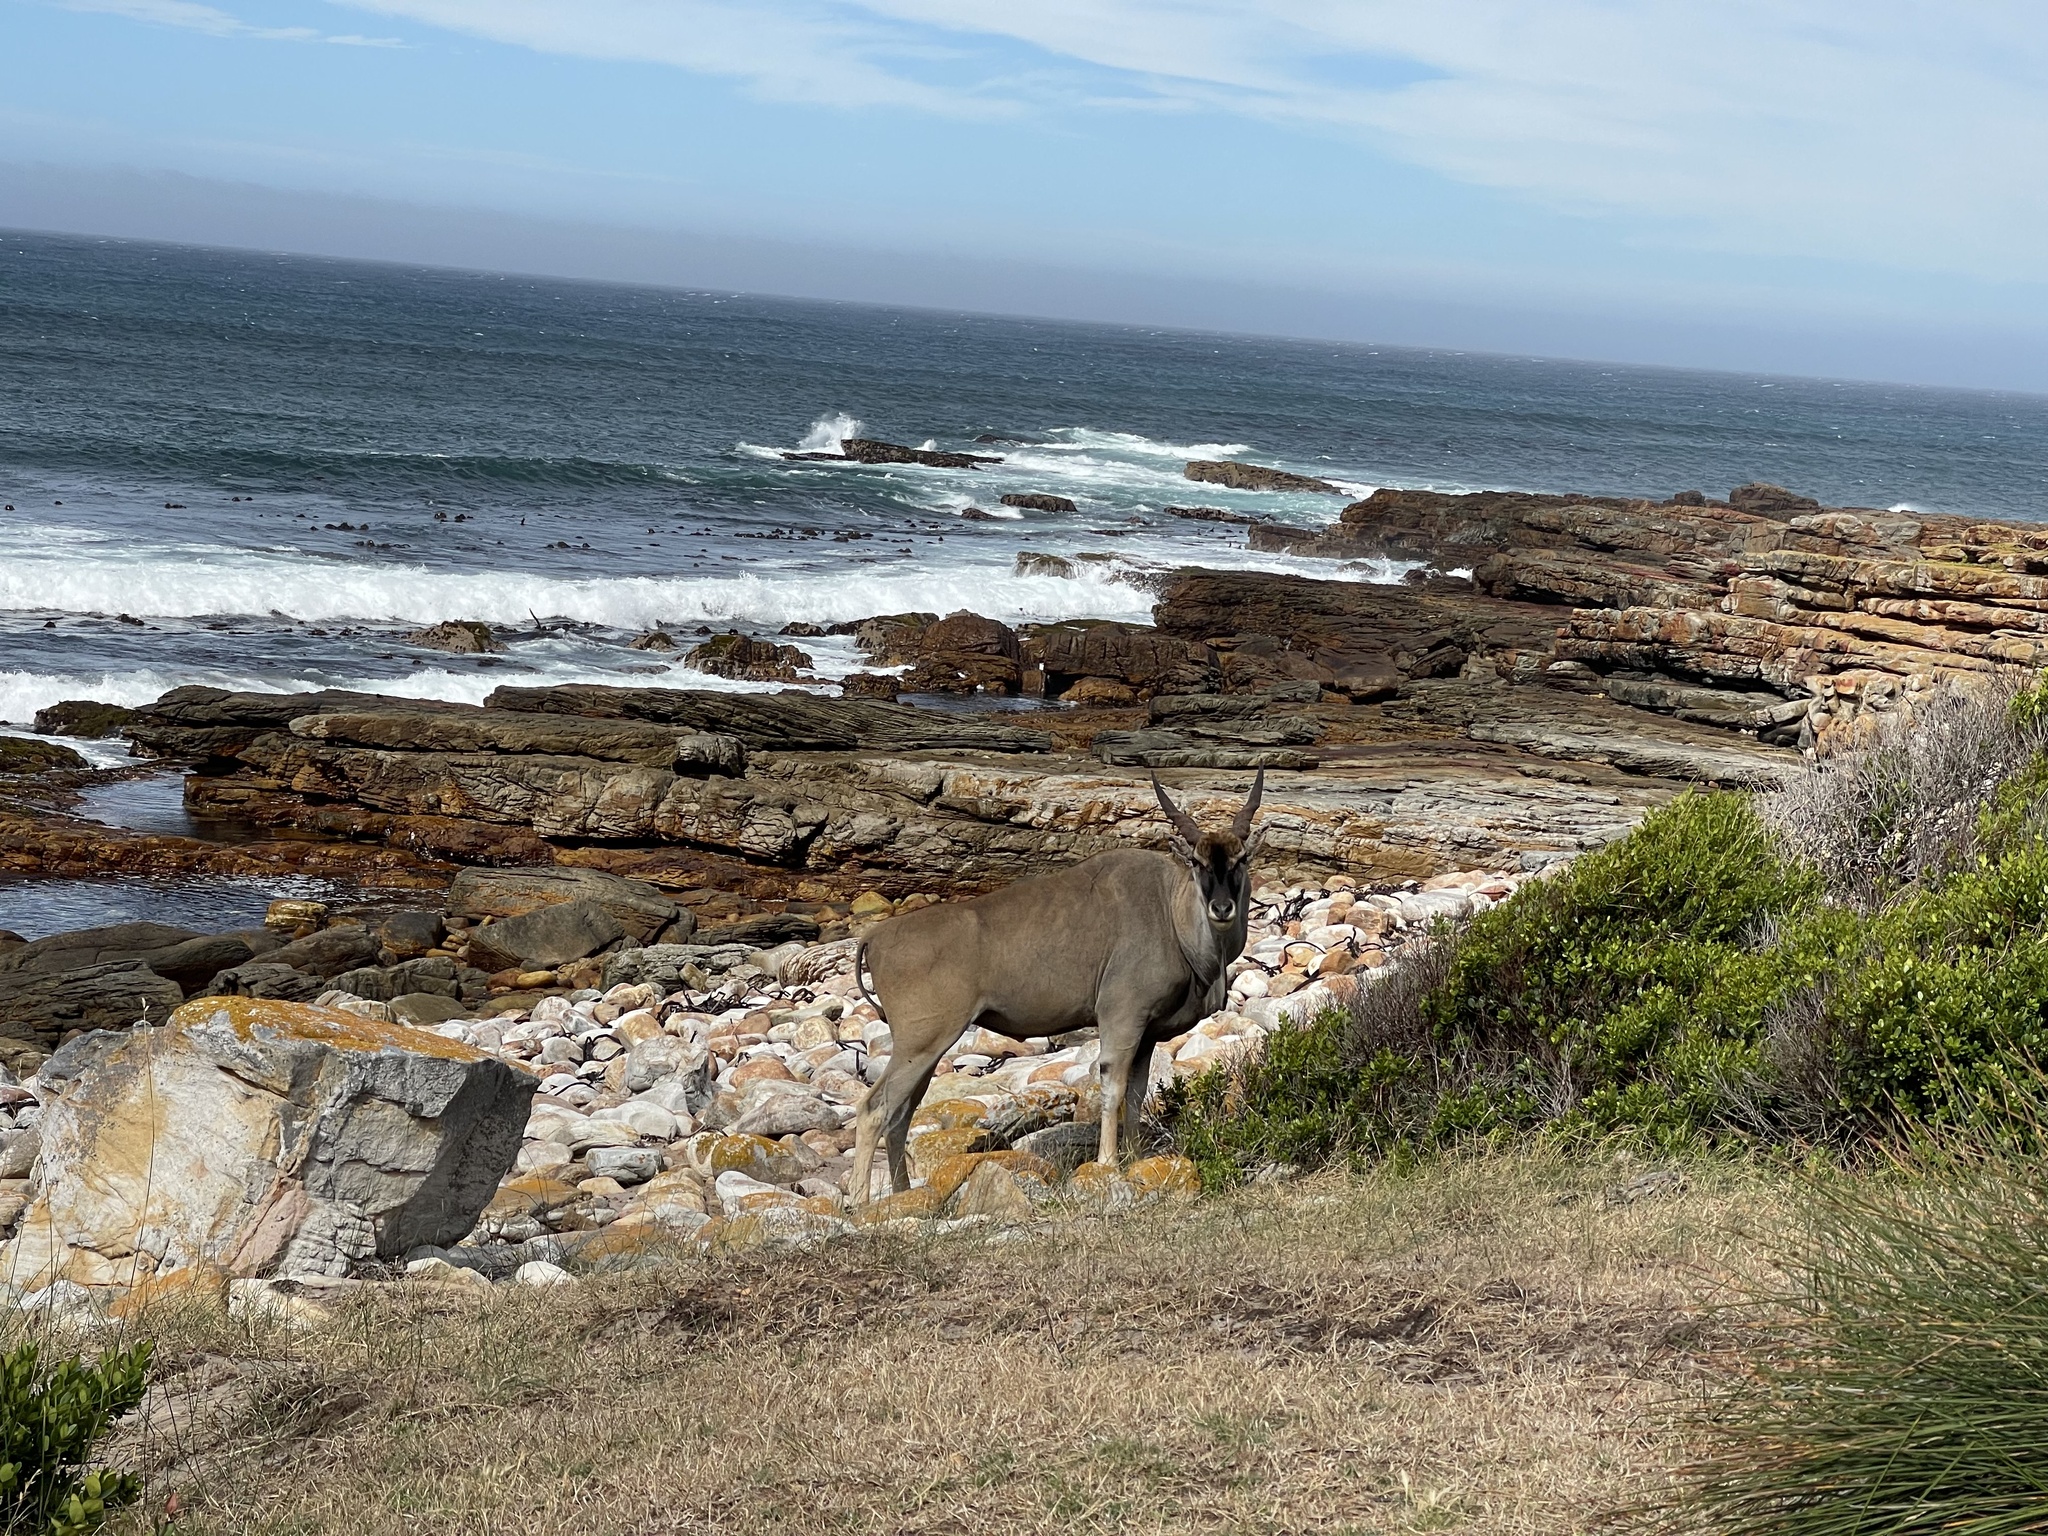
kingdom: Animalia
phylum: Chordata
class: Mammalia
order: Artiodactyla
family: Bovidae
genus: Taurotragus
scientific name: Taurotragus oryx
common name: Common eland
